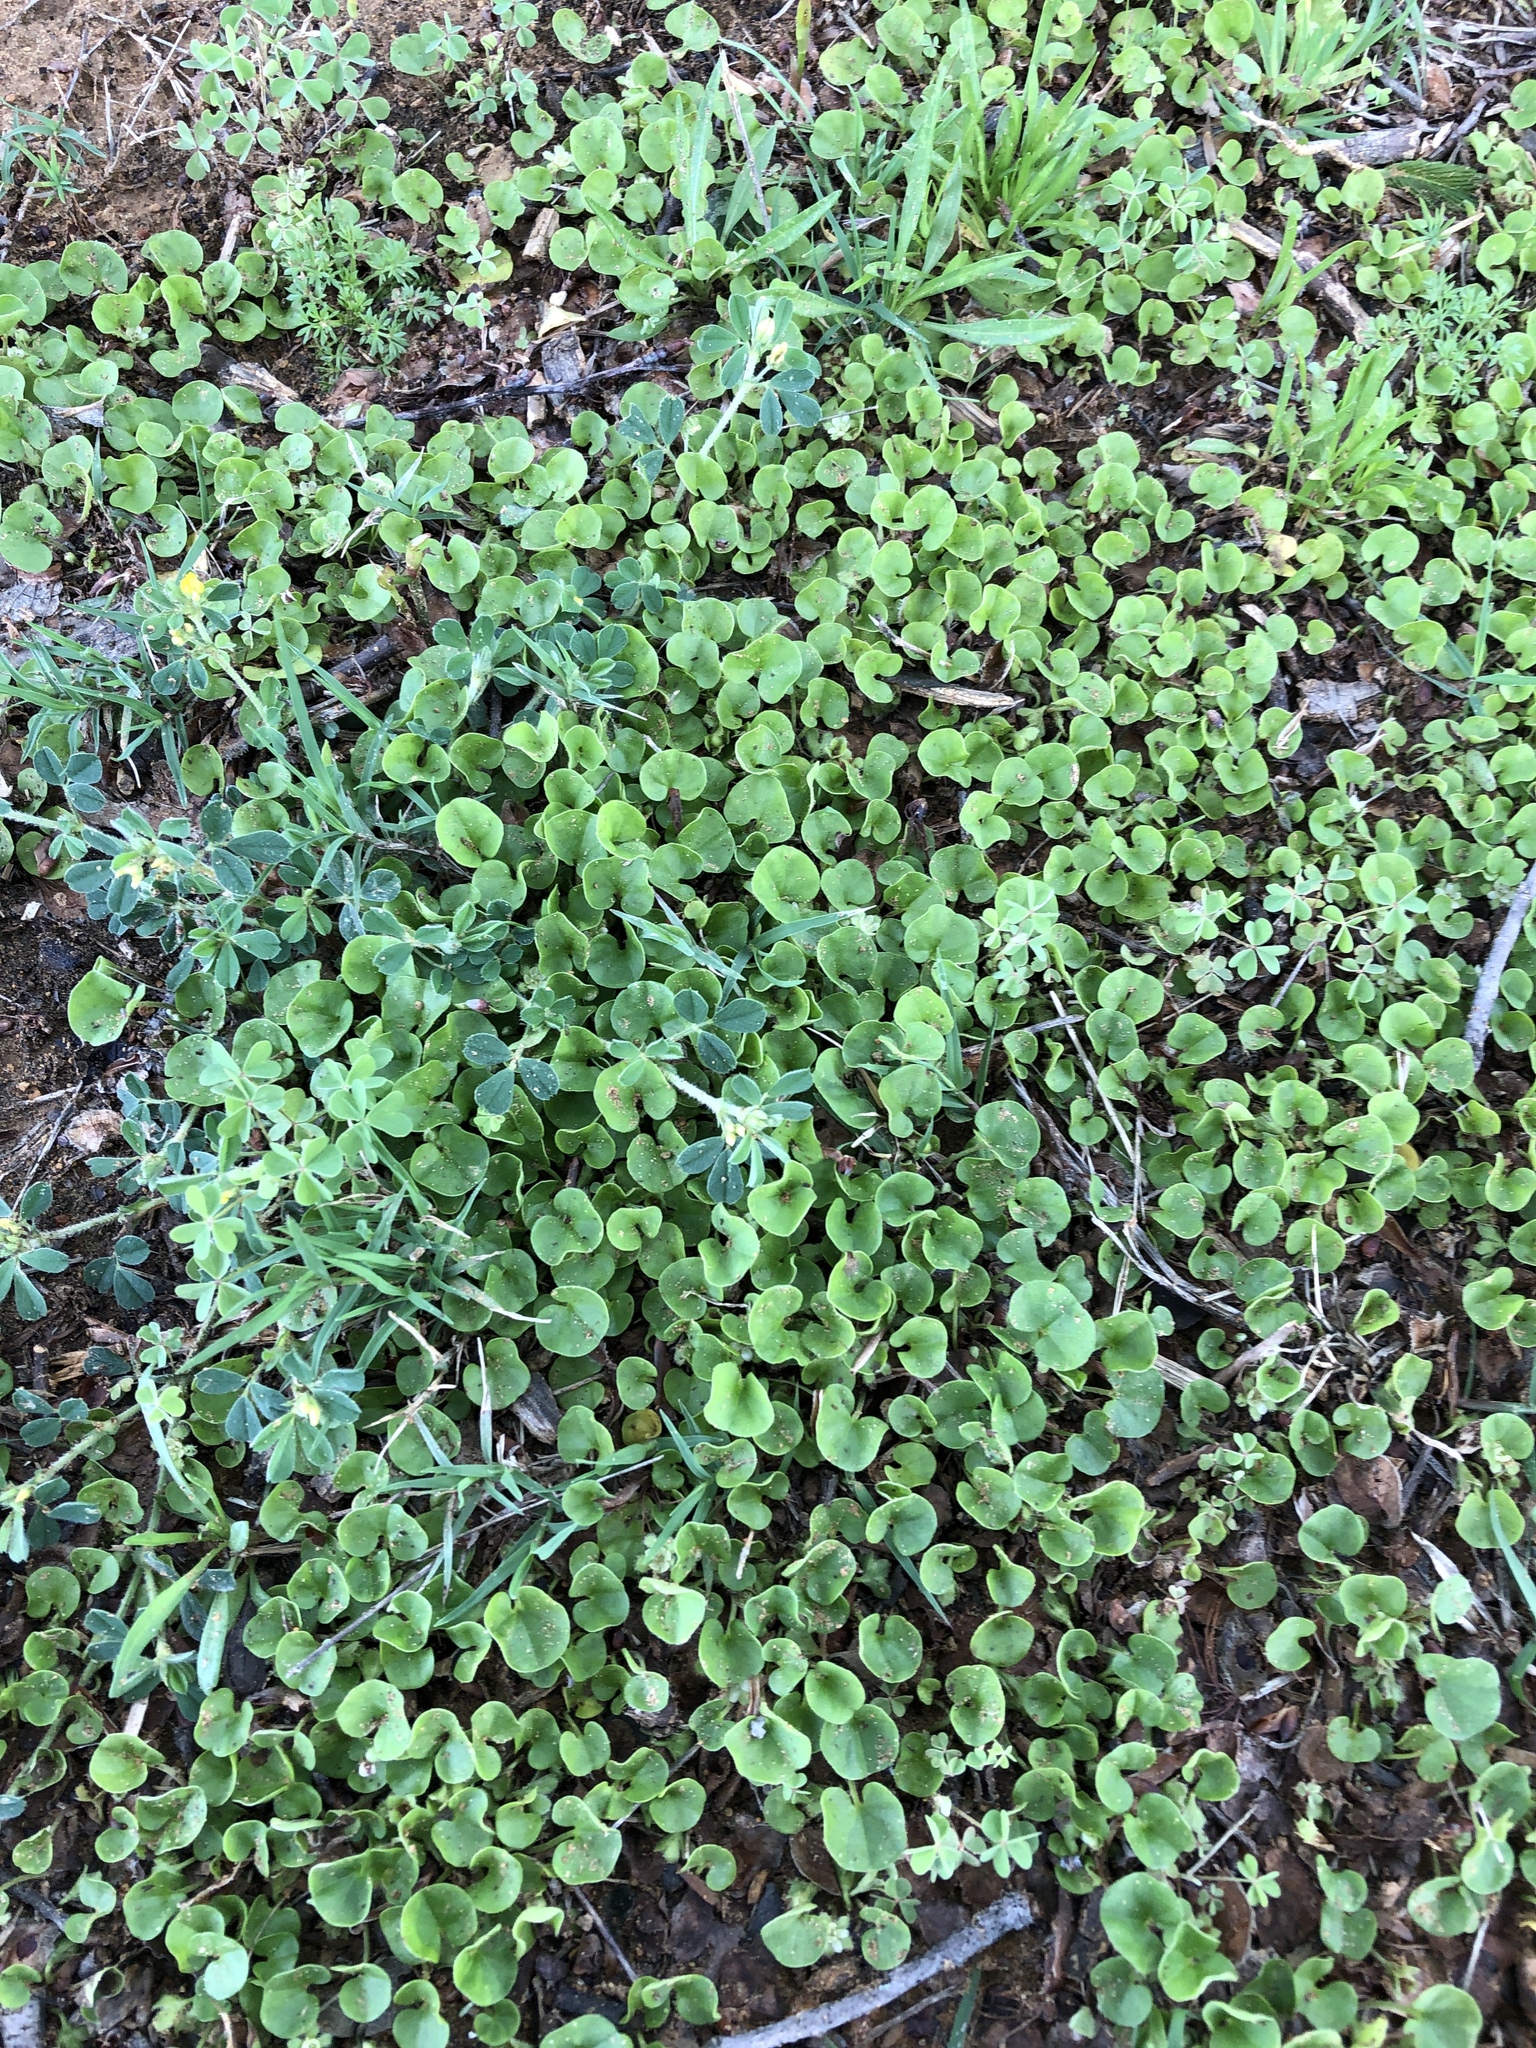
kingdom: Plantae
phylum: Tracheophyta
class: Magnoliopsida
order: Solanales
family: Convolvulaceae
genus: Dichondra
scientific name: Dichondra carolinensis
